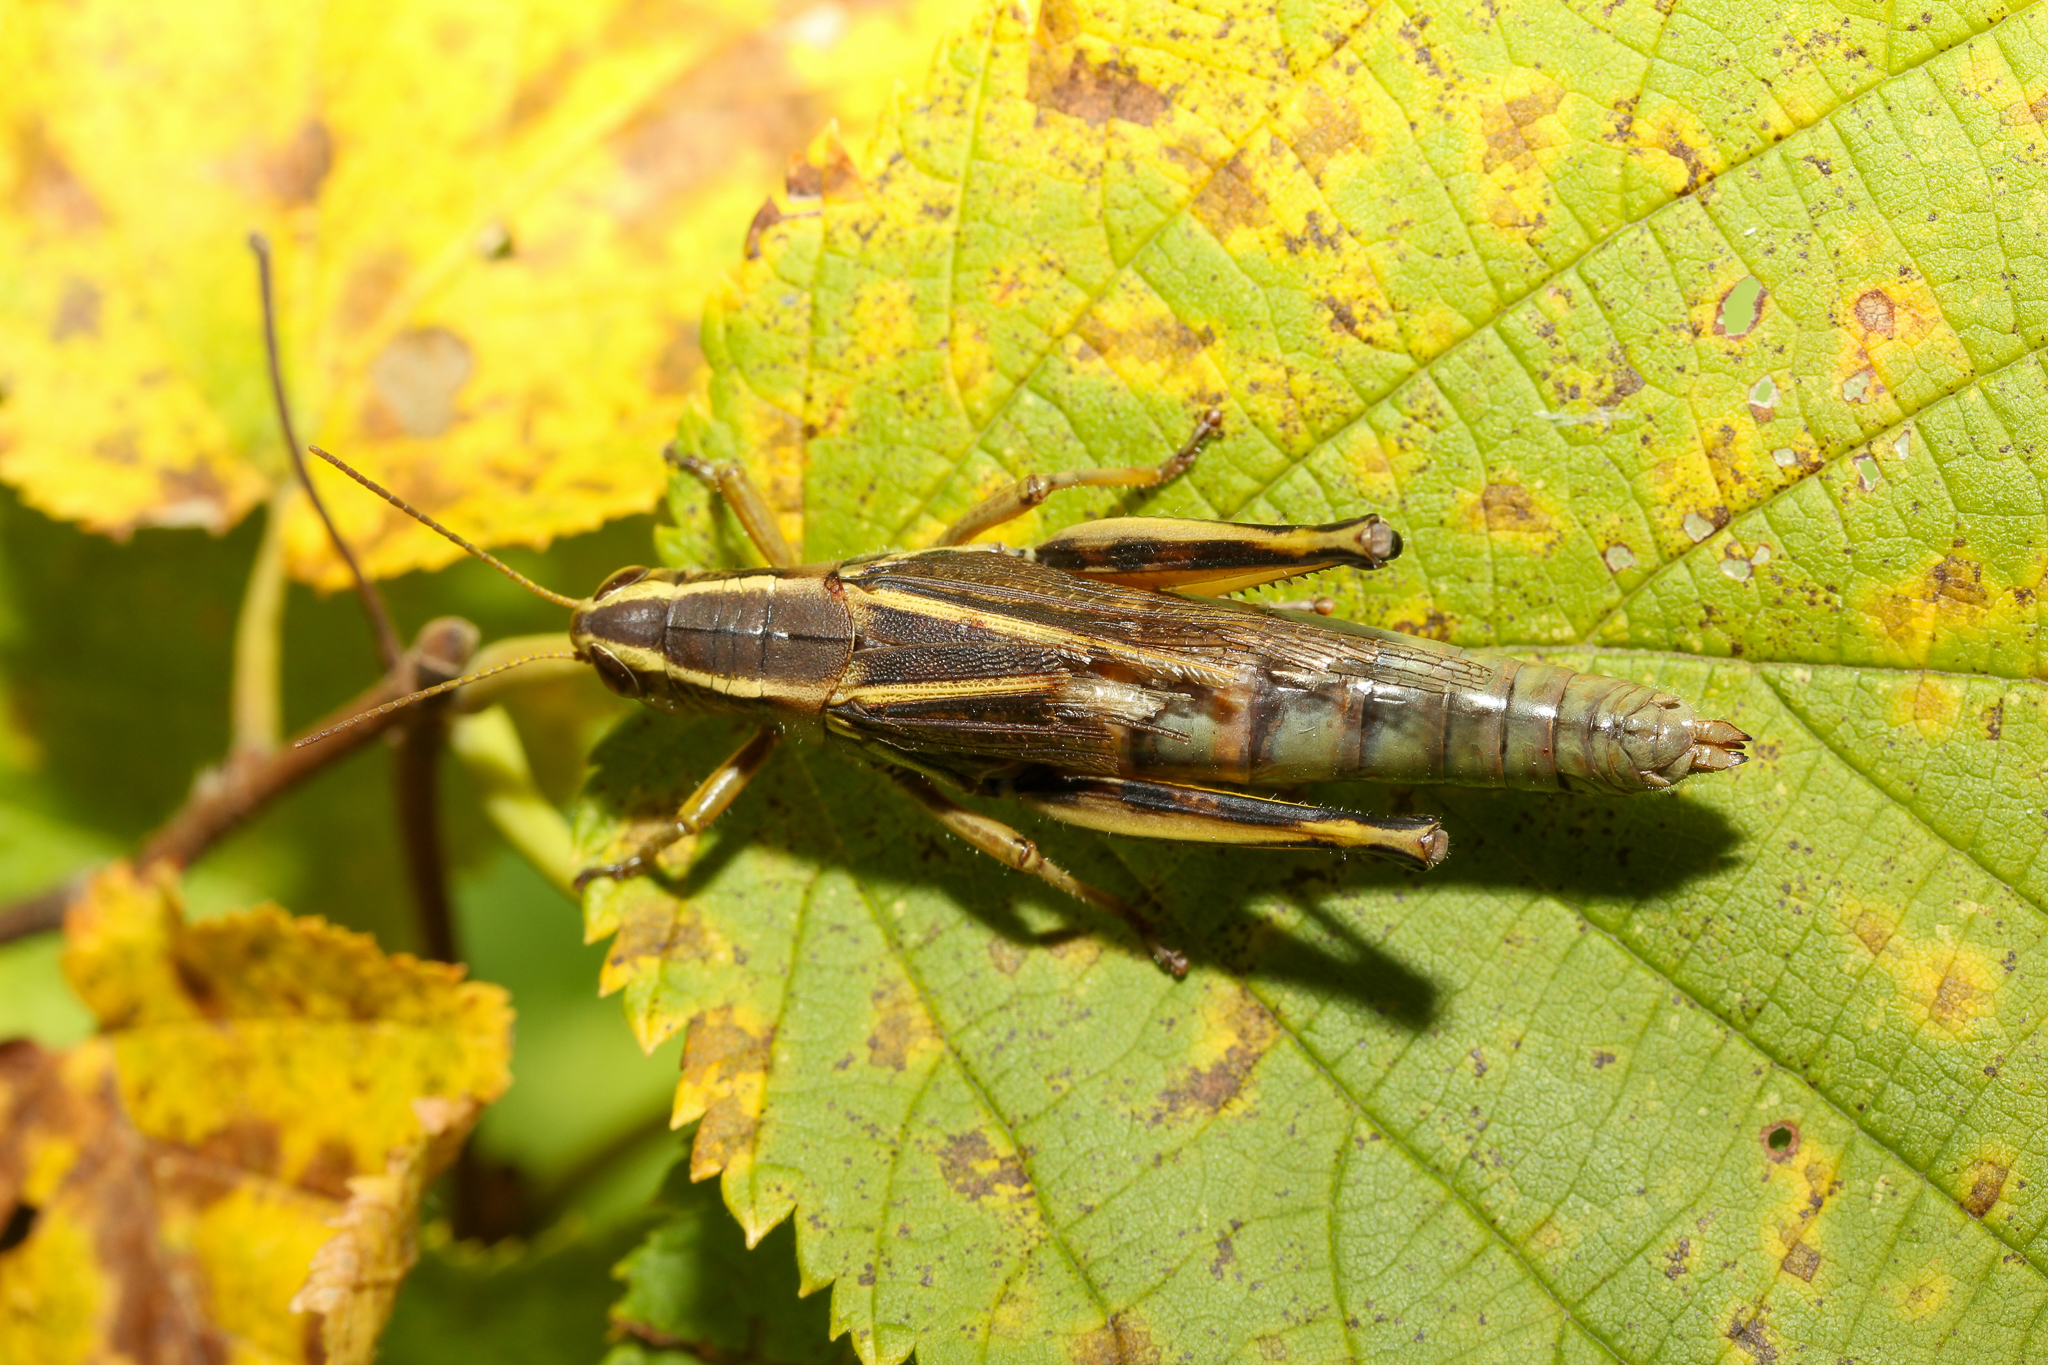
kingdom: Animalia
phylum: Arthropoda
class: Insecta
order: Orthoptera
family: Acrididae
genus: Melanoplus
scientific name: Melanoplus bivittatus
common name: Two-striped grasshopper
